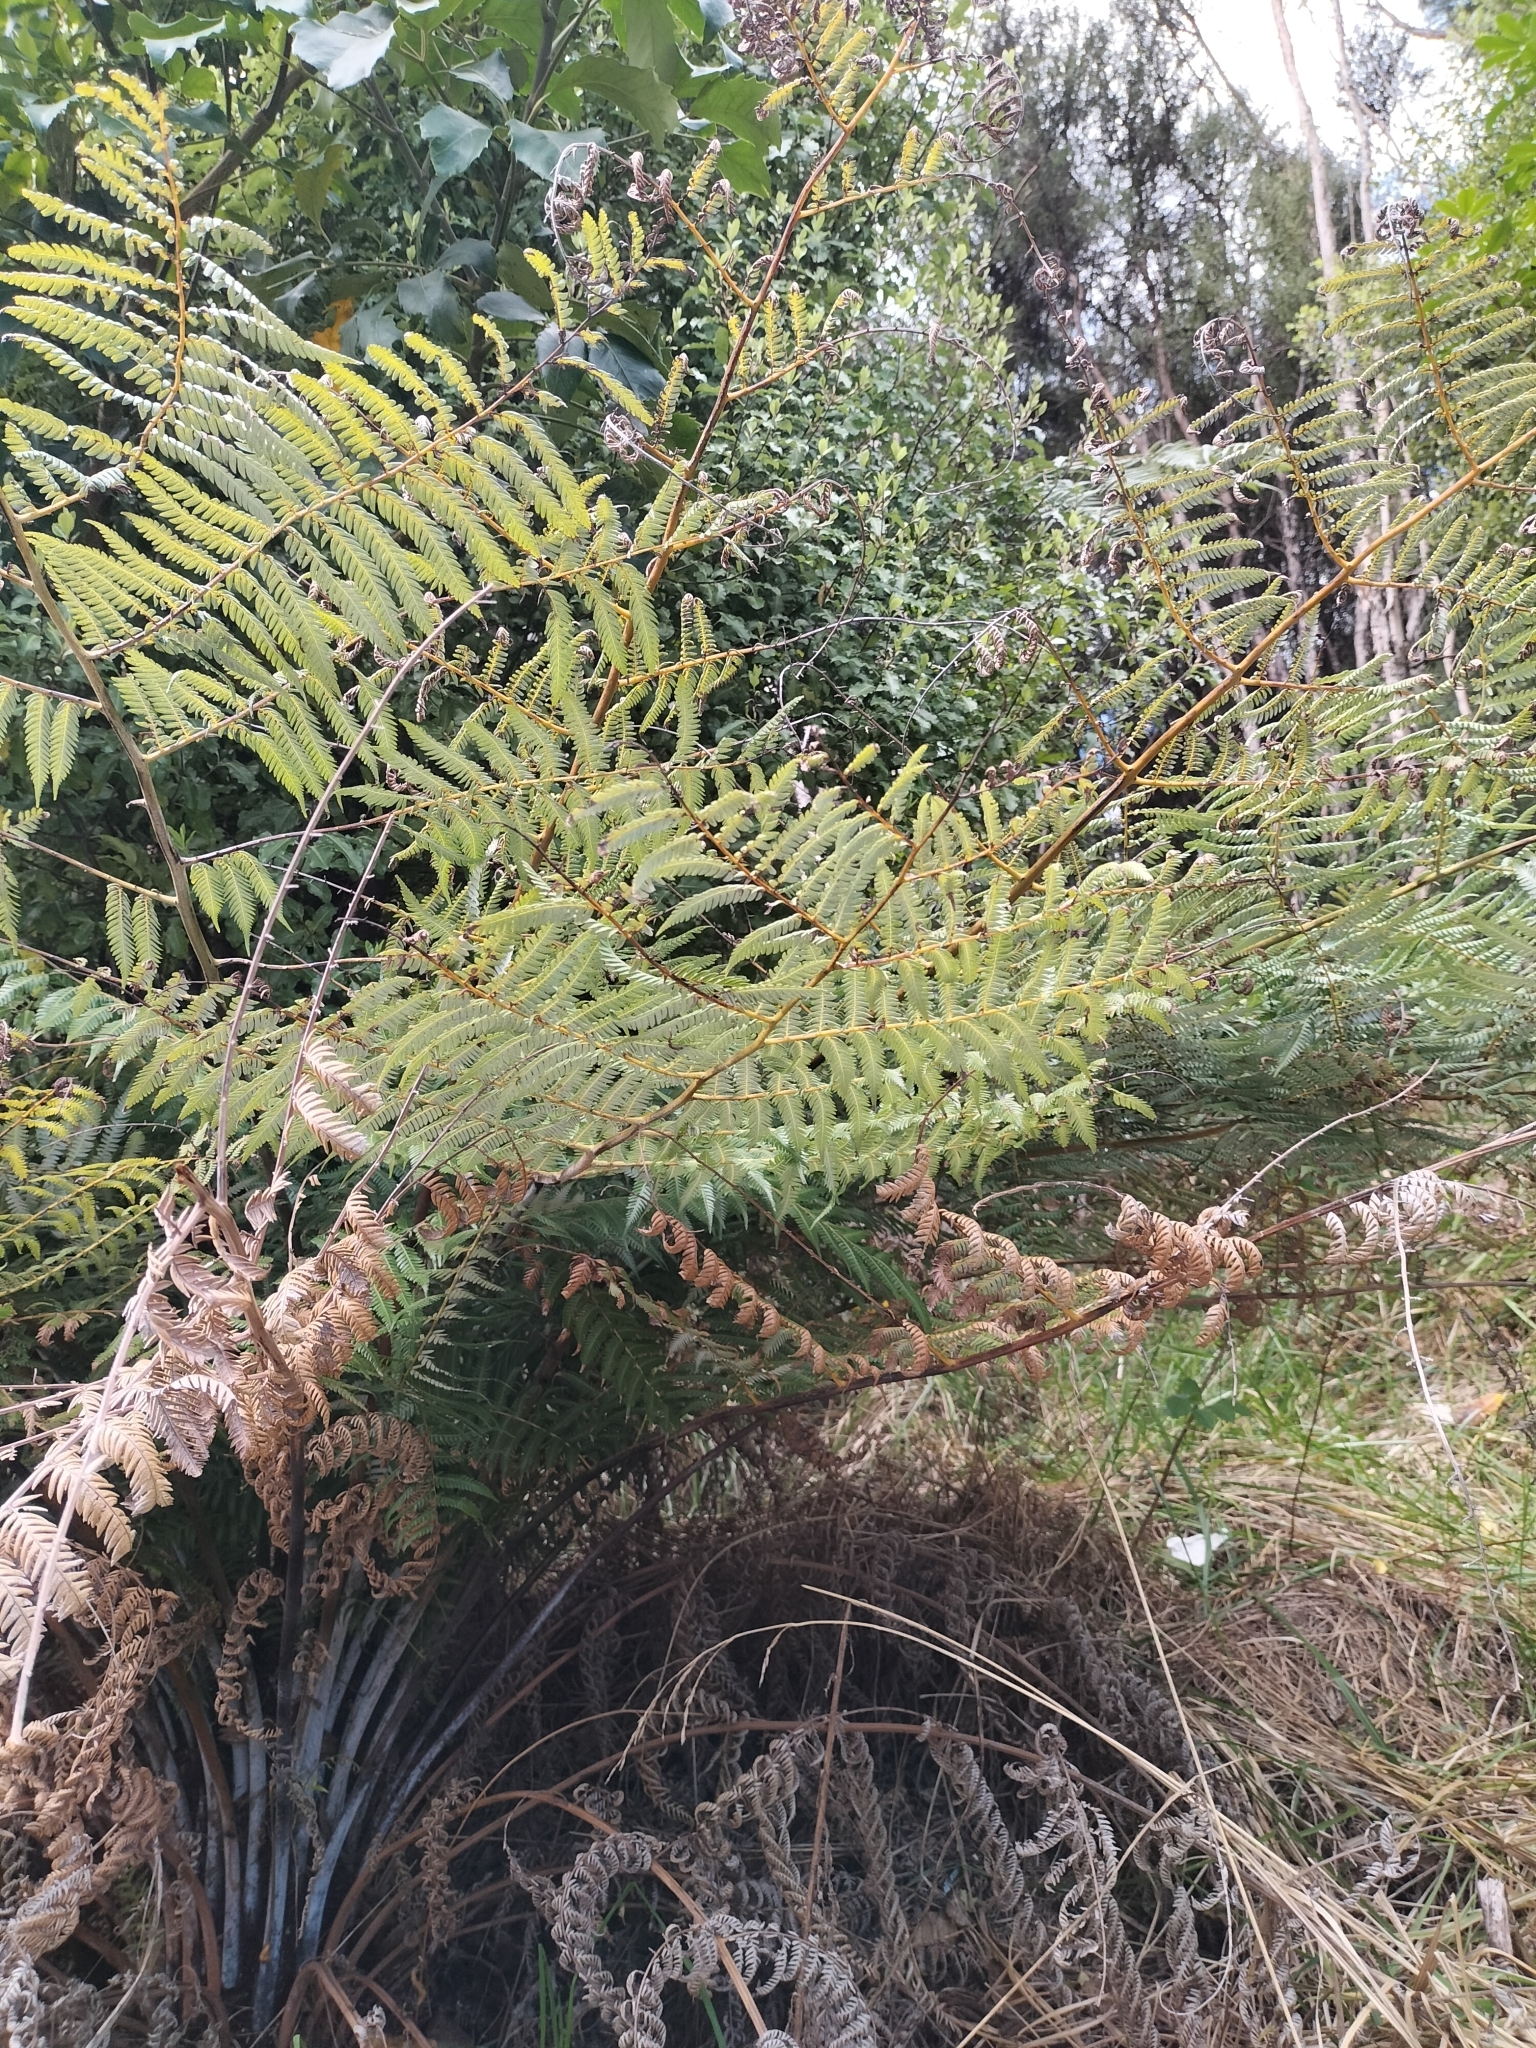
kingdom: Plantae
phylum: Tracheophyta
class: Polypodiopsida
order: Cyatheales
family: Cyatheaceae
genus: Alsophila
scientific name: Alsophila dealbata
